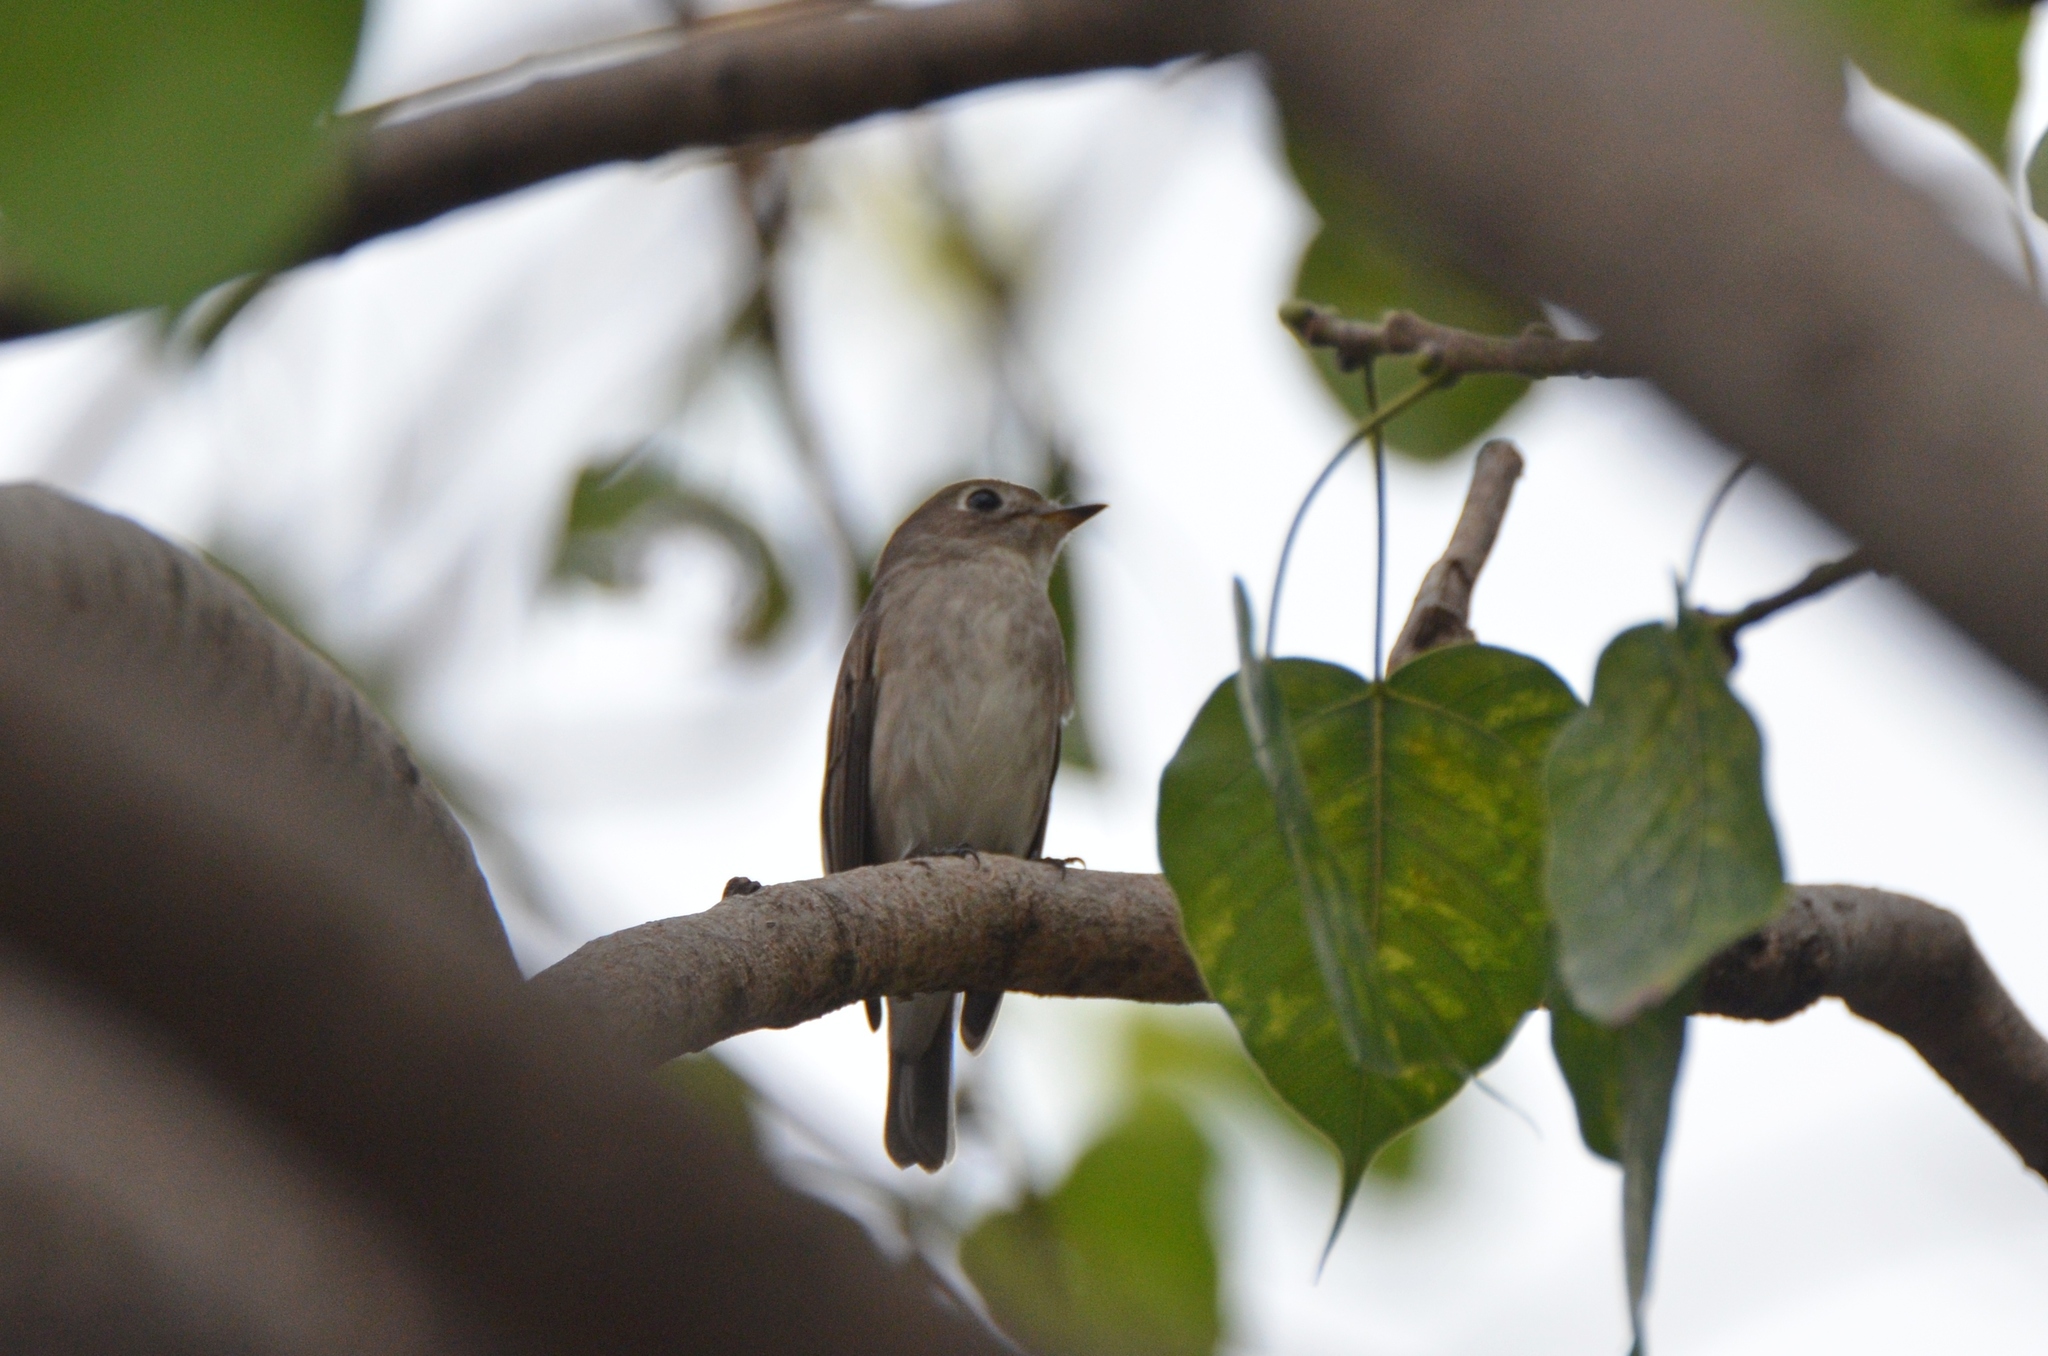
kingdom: Animalia
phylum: Chordata
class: Aves
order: Passeriformes
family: Muscicapidae
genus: Muscicapa
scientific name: Muscicapa latirostris
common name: Asian brown flycatcher
